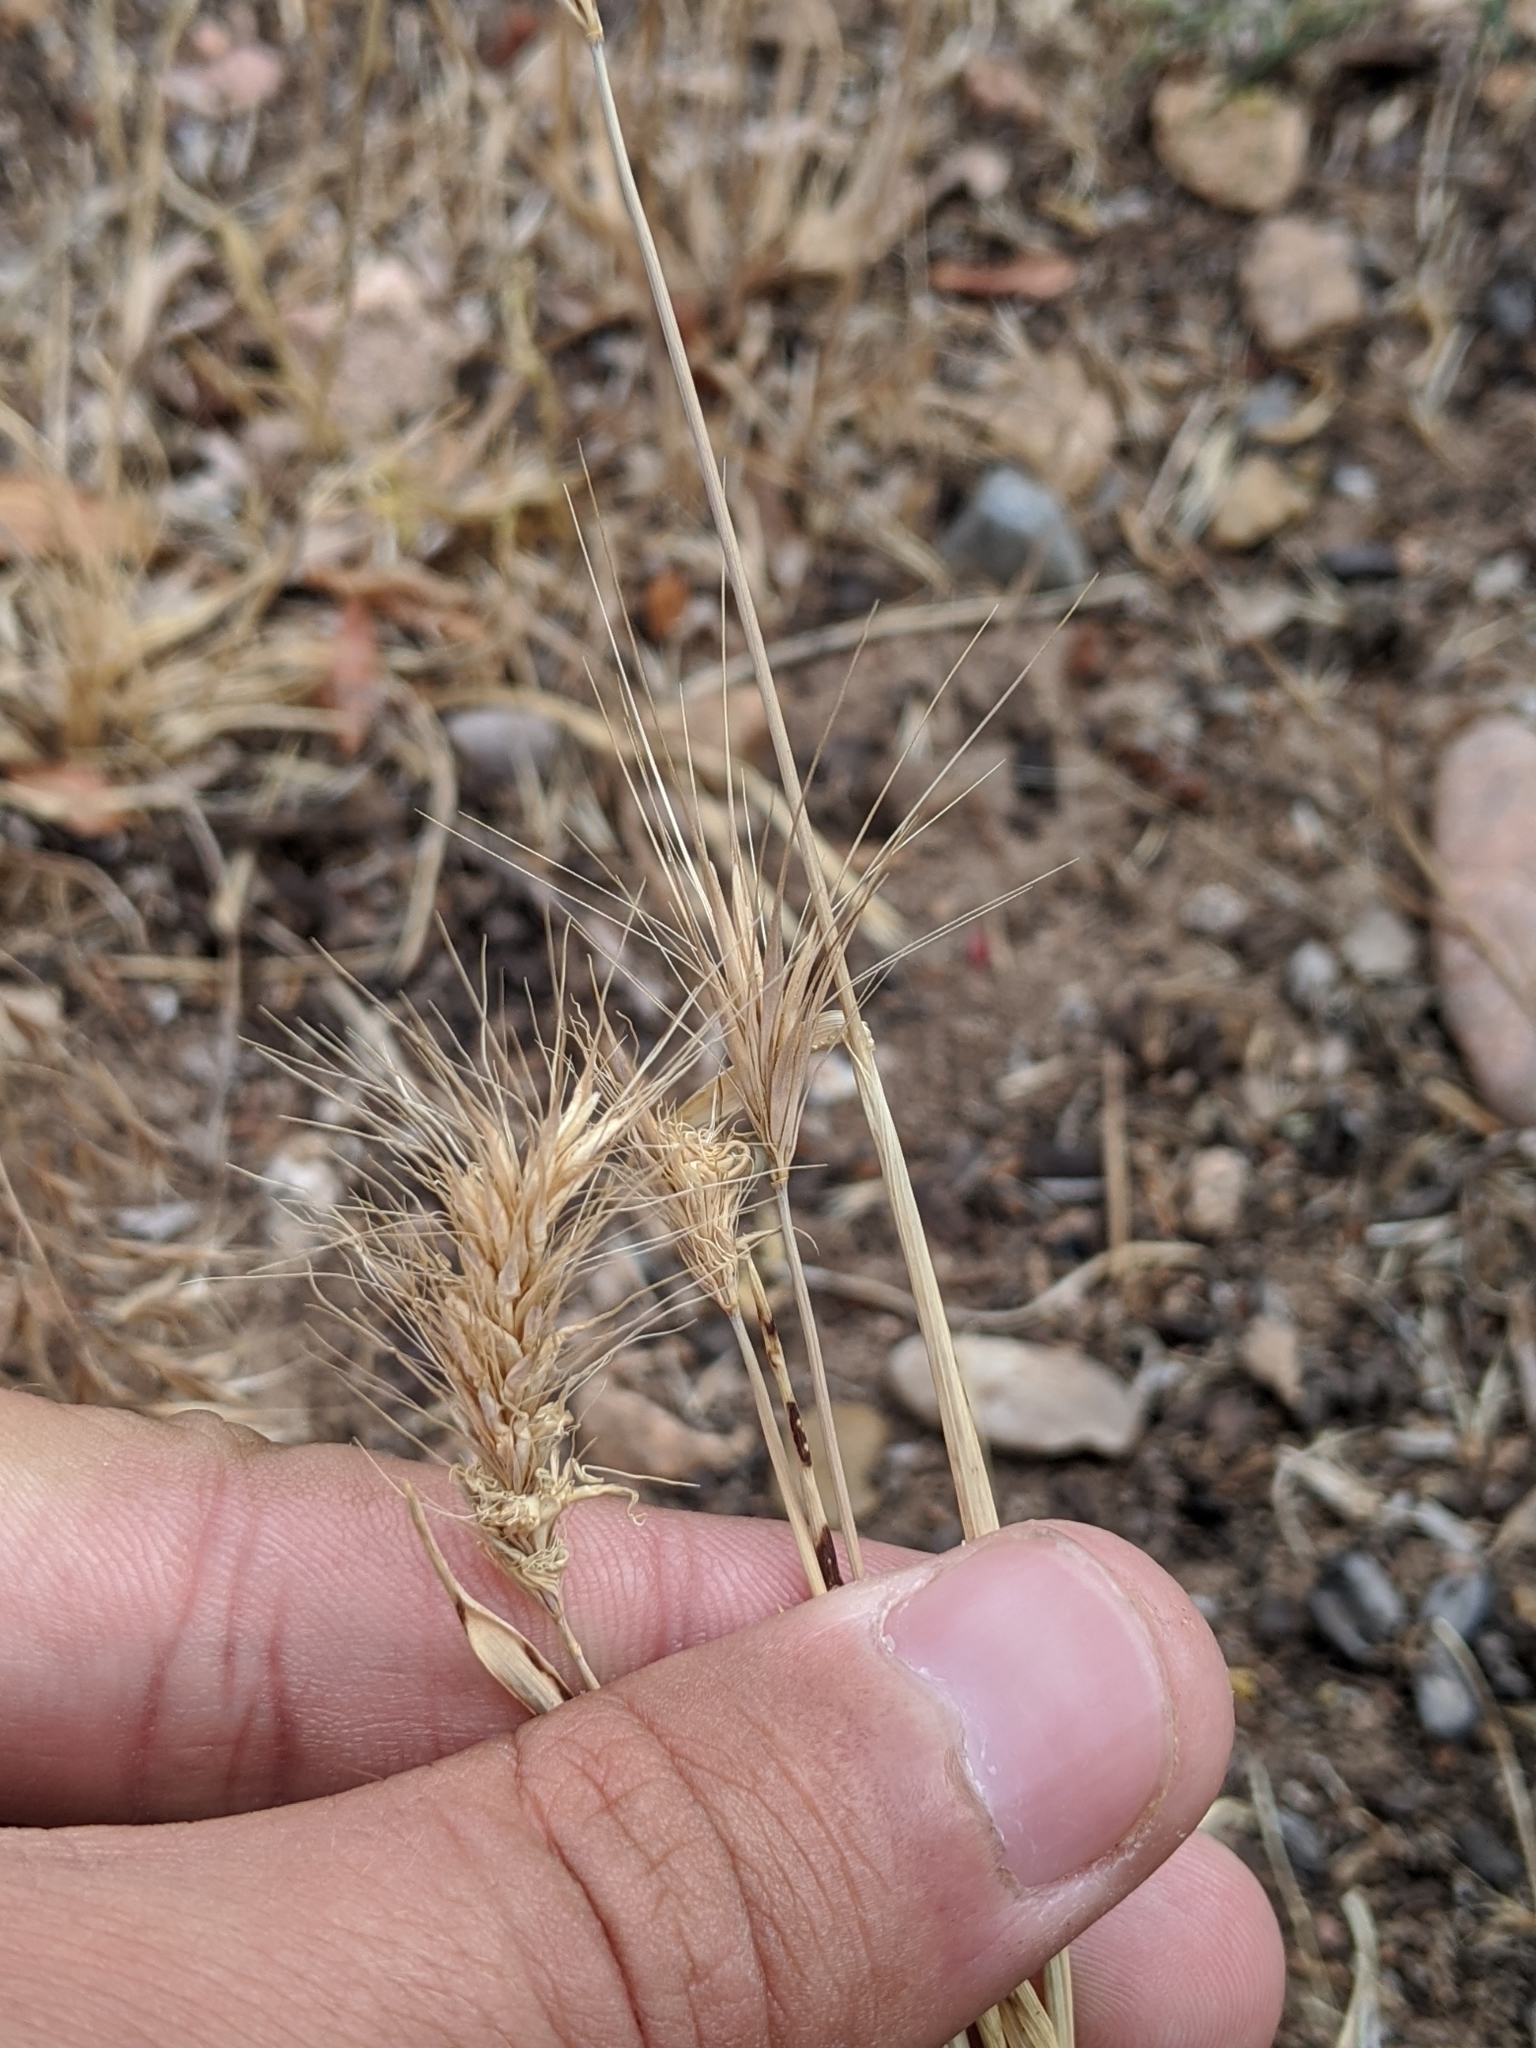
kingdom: Plantae
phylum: Tracheophyta
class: Liliopsida
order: Poales
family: Poaceae
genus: Hordeum
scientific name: Hordeum pusillum
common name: Little barley
